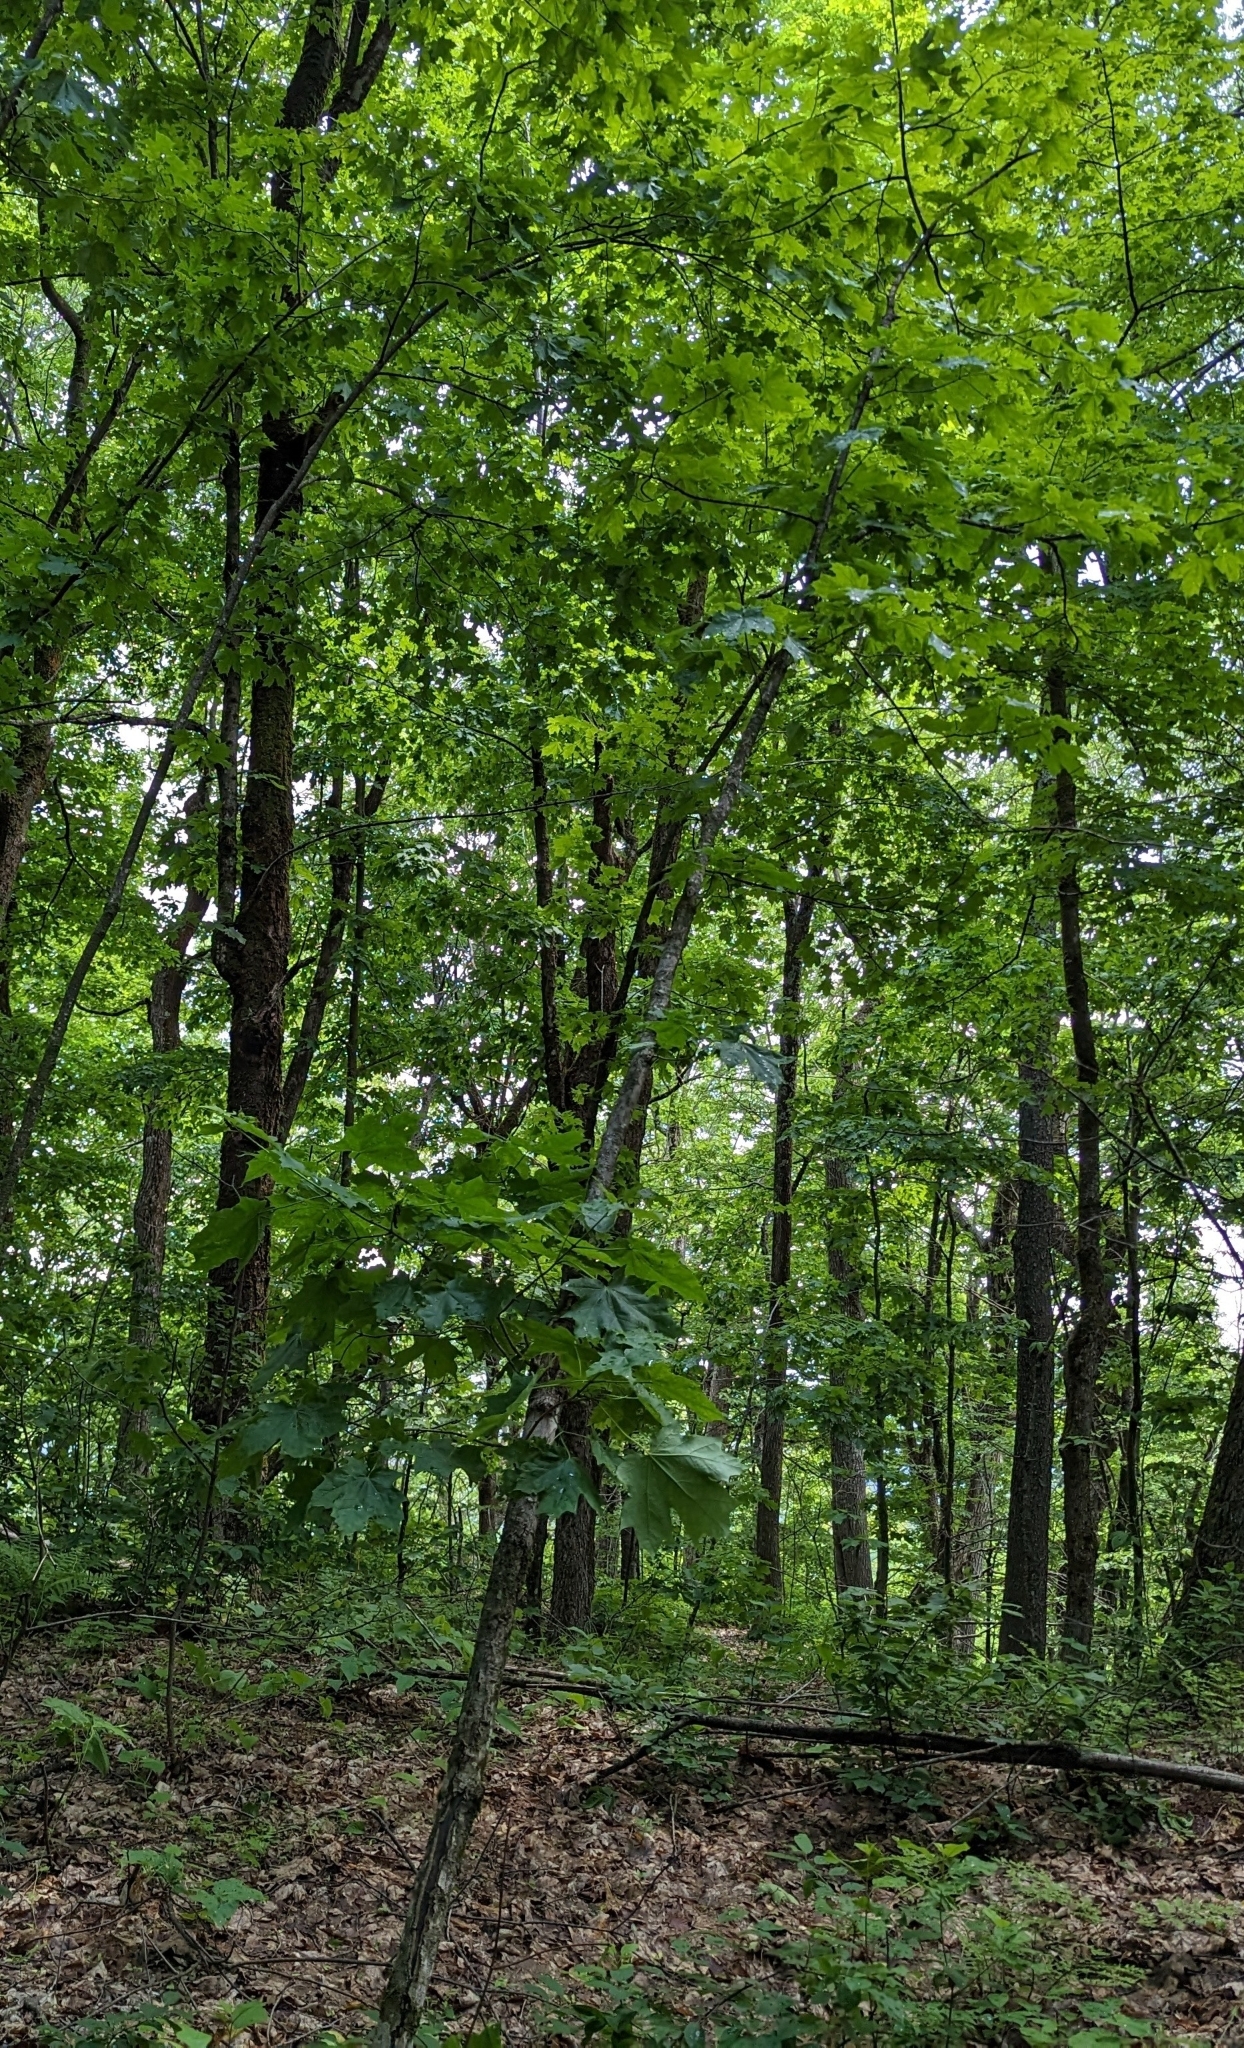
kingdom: Plantae
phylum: Tracheophyta
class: Magnoliopsida
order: Sapindales
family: Sapindaceae
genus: Acer
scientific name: Acer saccharum
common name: Sugar maple
